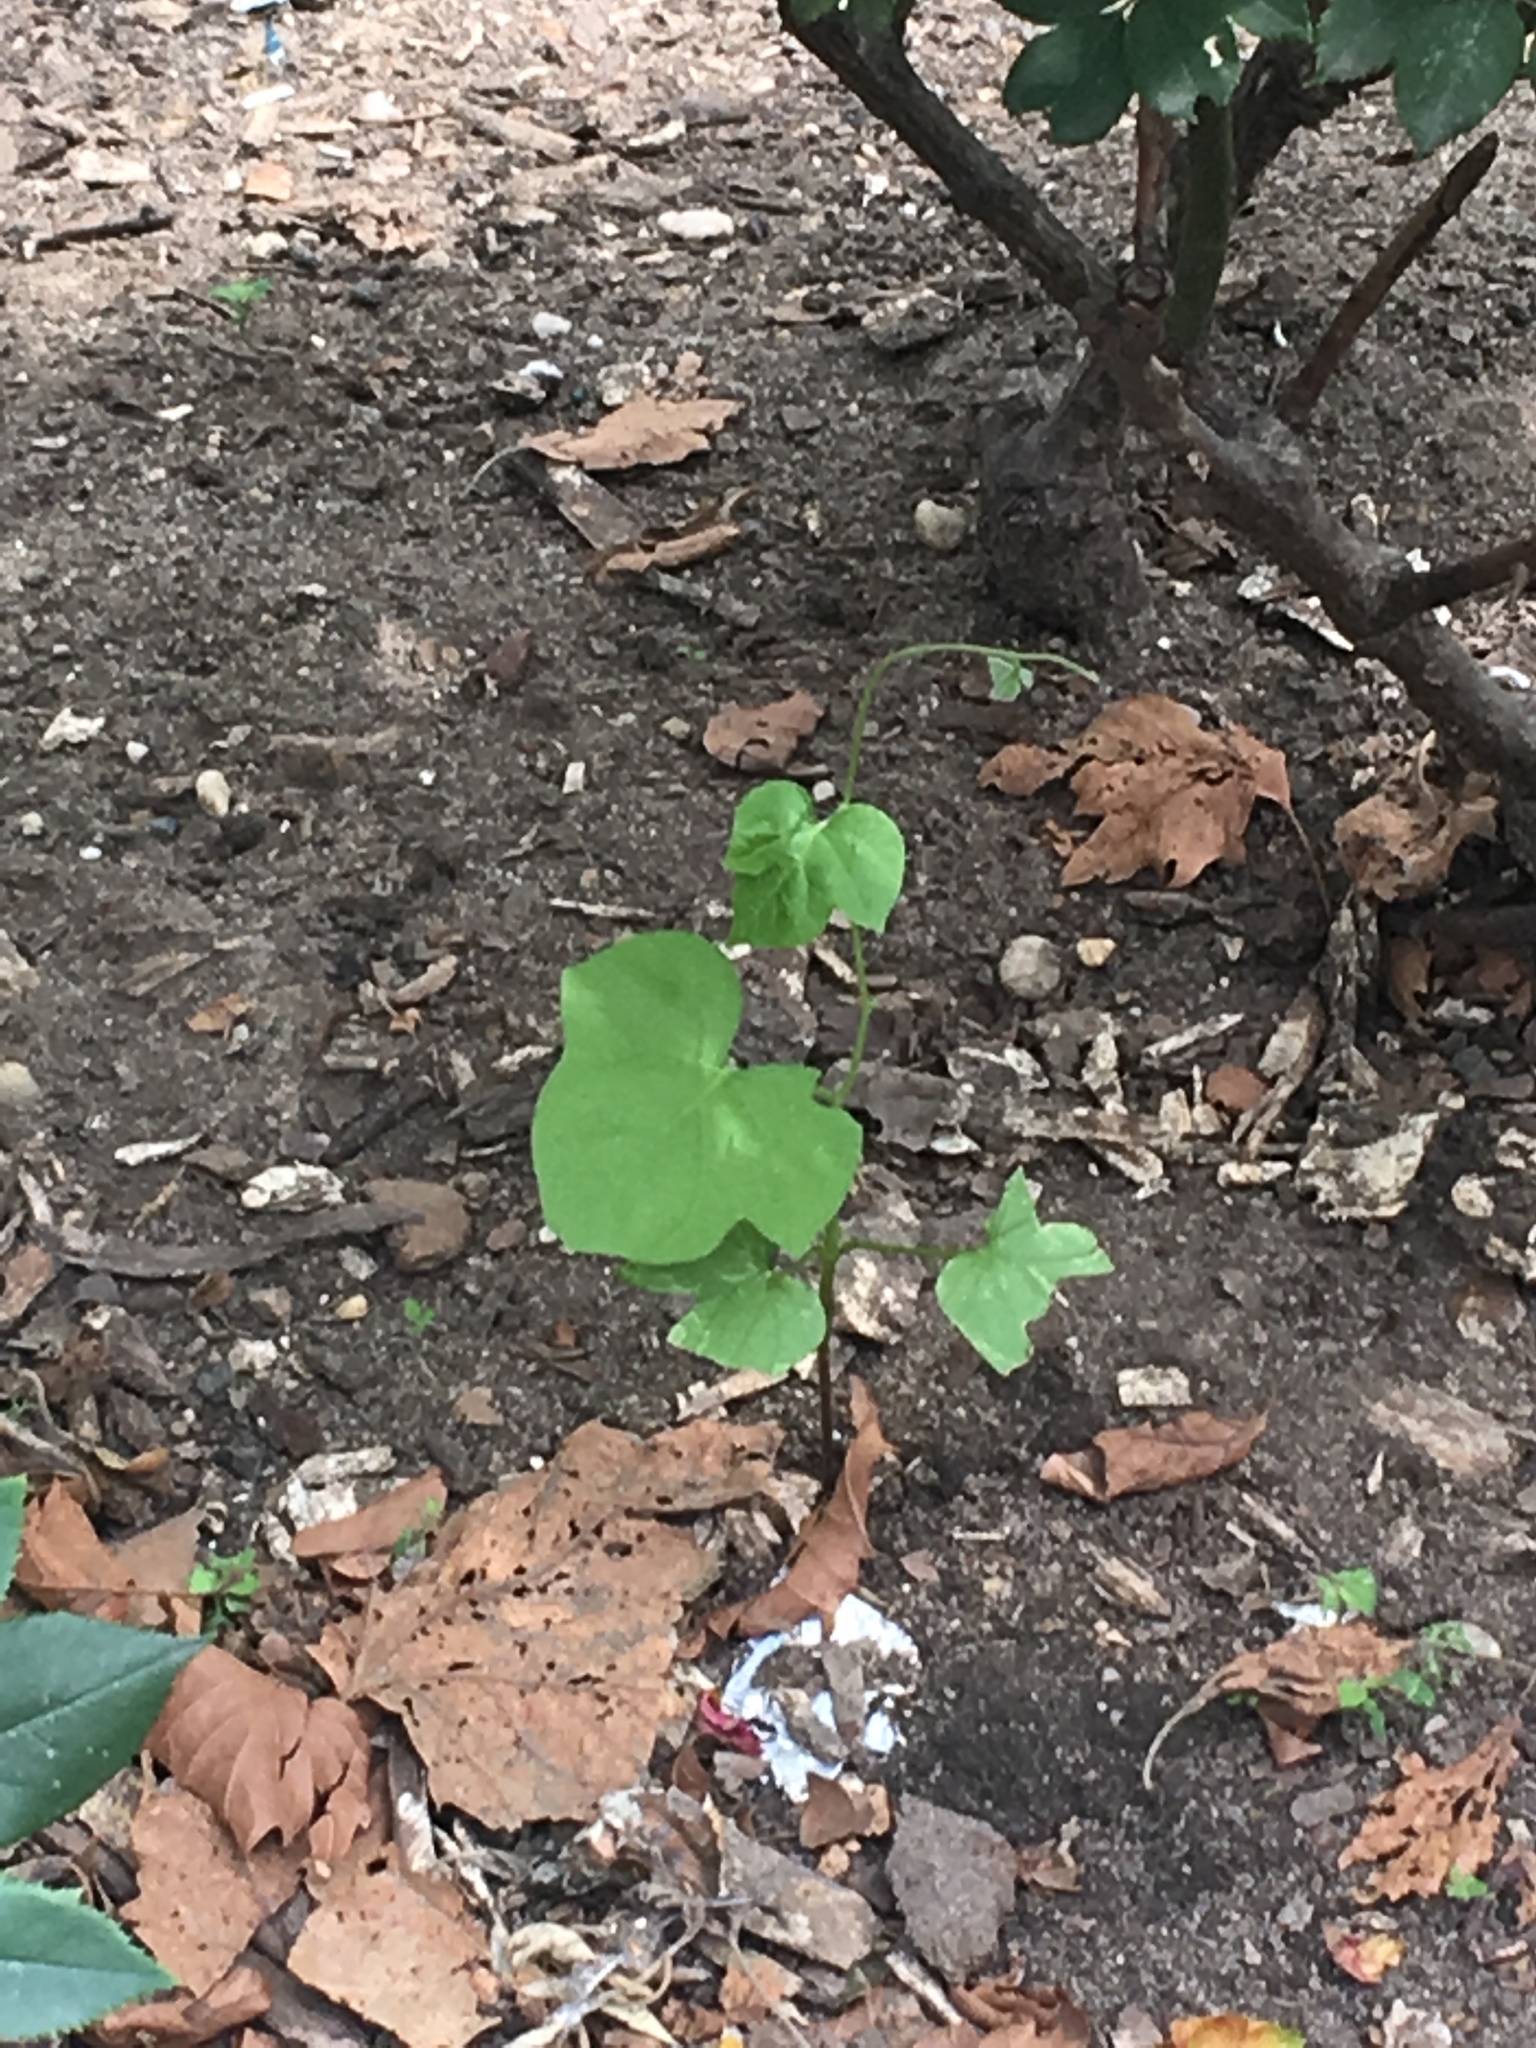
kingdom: Plantae
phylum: Tracheophyta
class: Magnoliopsida
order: Solanales
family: Convolvulaceae
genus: Ipomoea
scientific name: Ipomoea hederacea
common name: Ivy-leaved morning-glory
